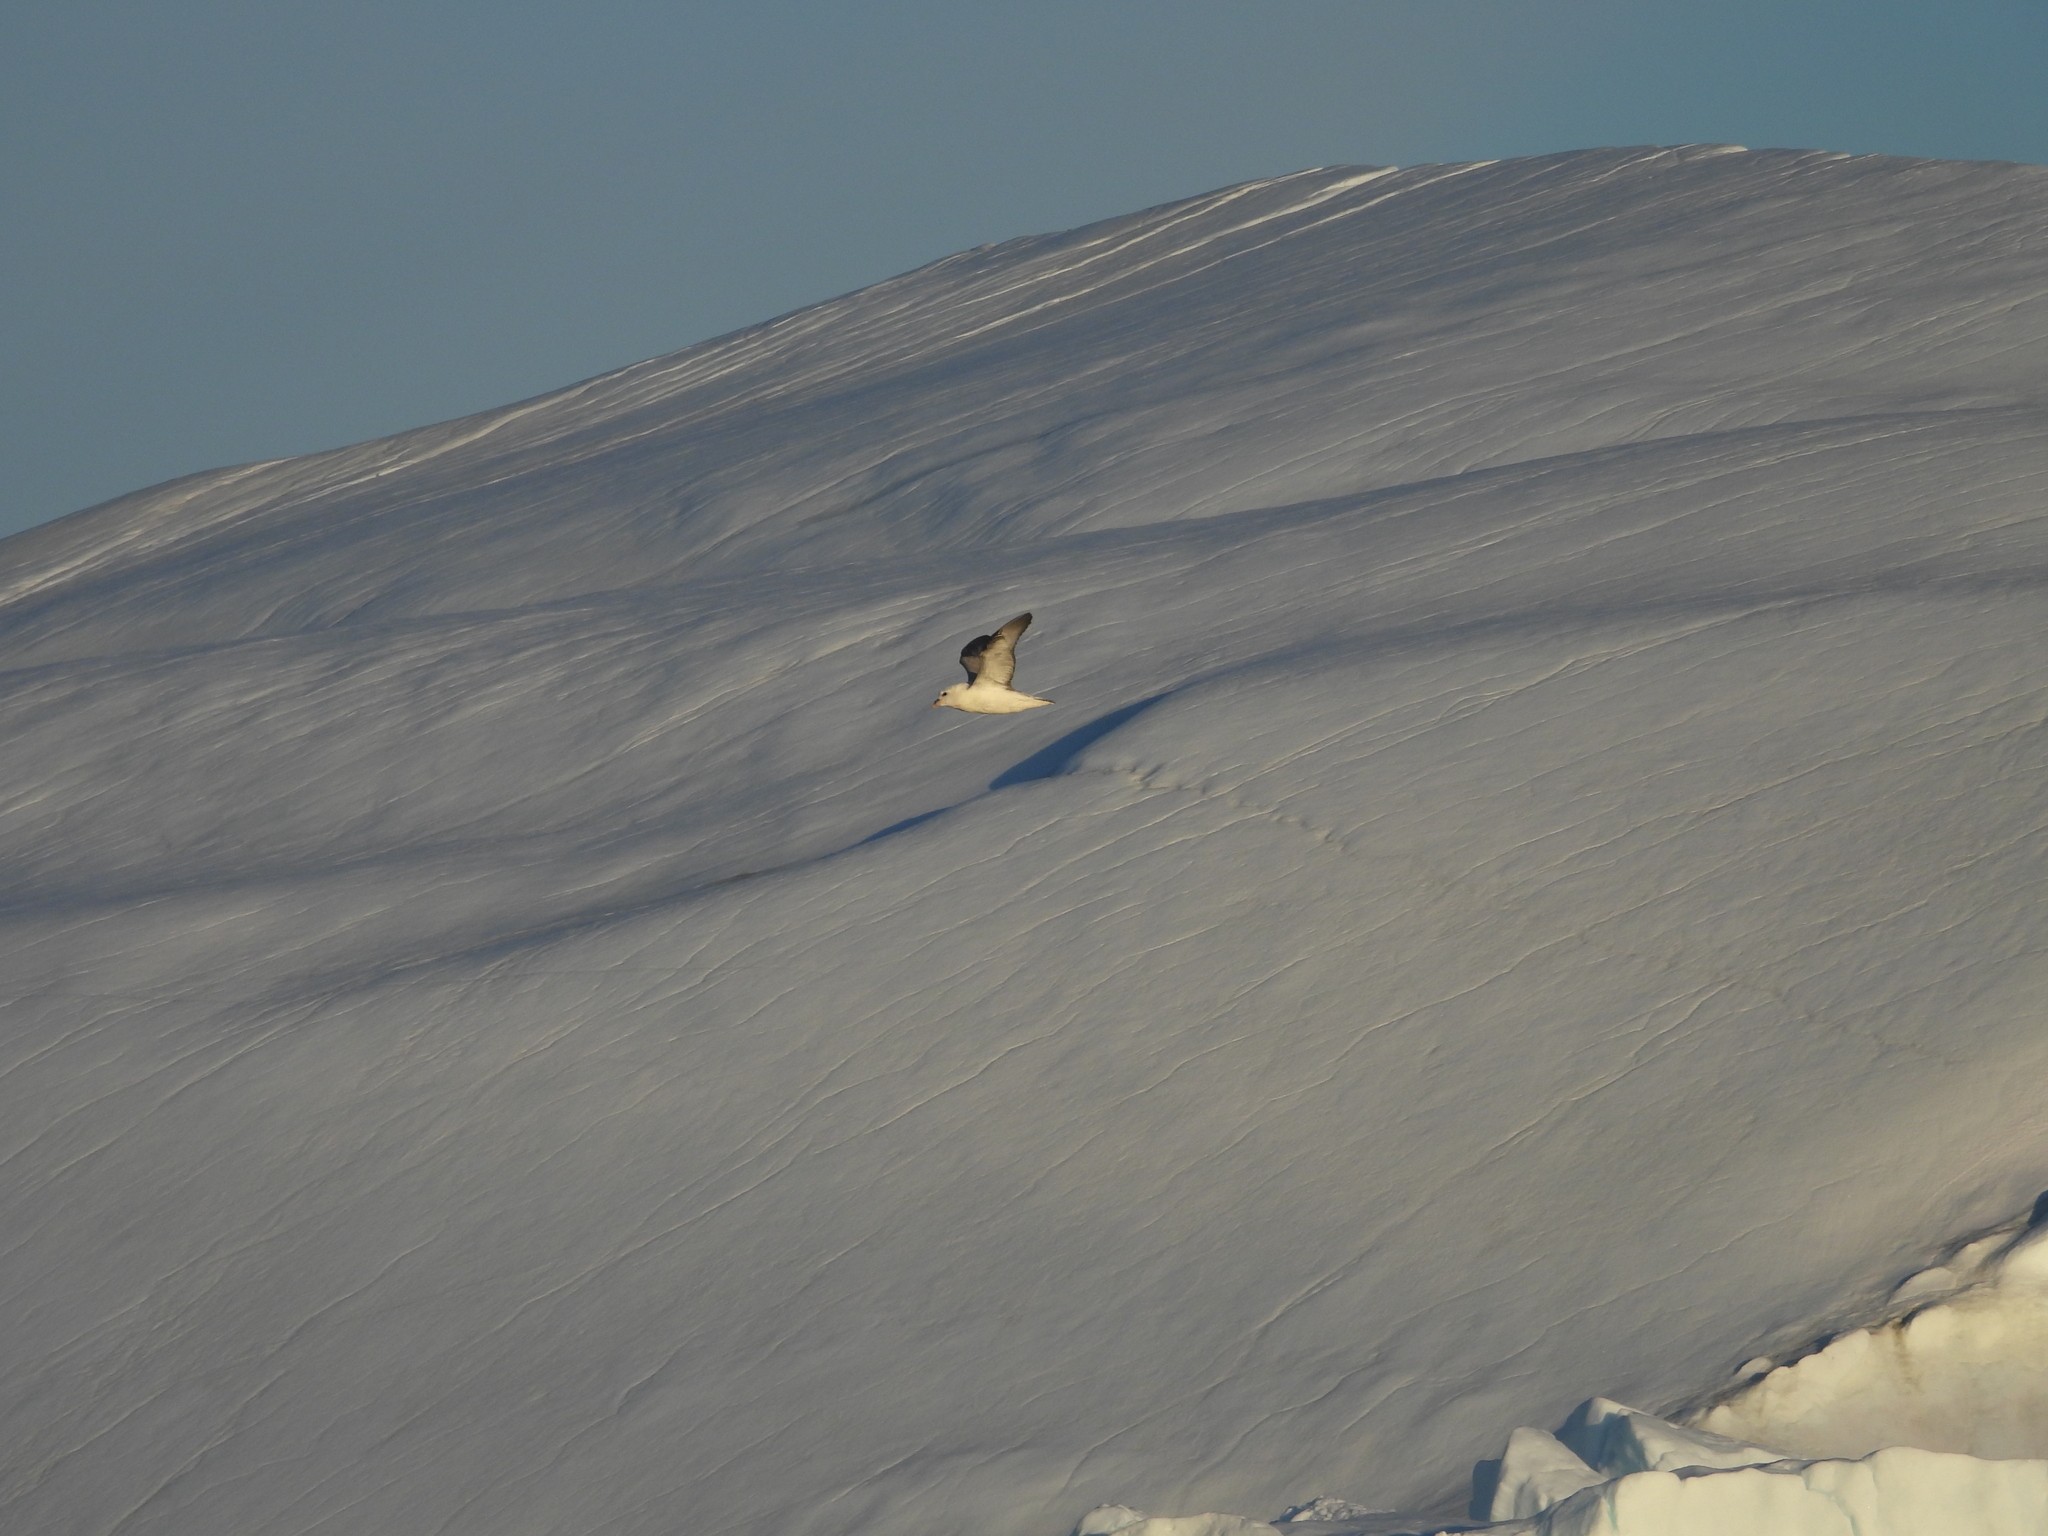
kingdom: Animalia
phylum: Chordata
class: Aves
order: Procellariiformes
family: Procellariidae
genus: Fulmarus
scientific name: Fulmarus glacialis
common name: Northern fulmar
